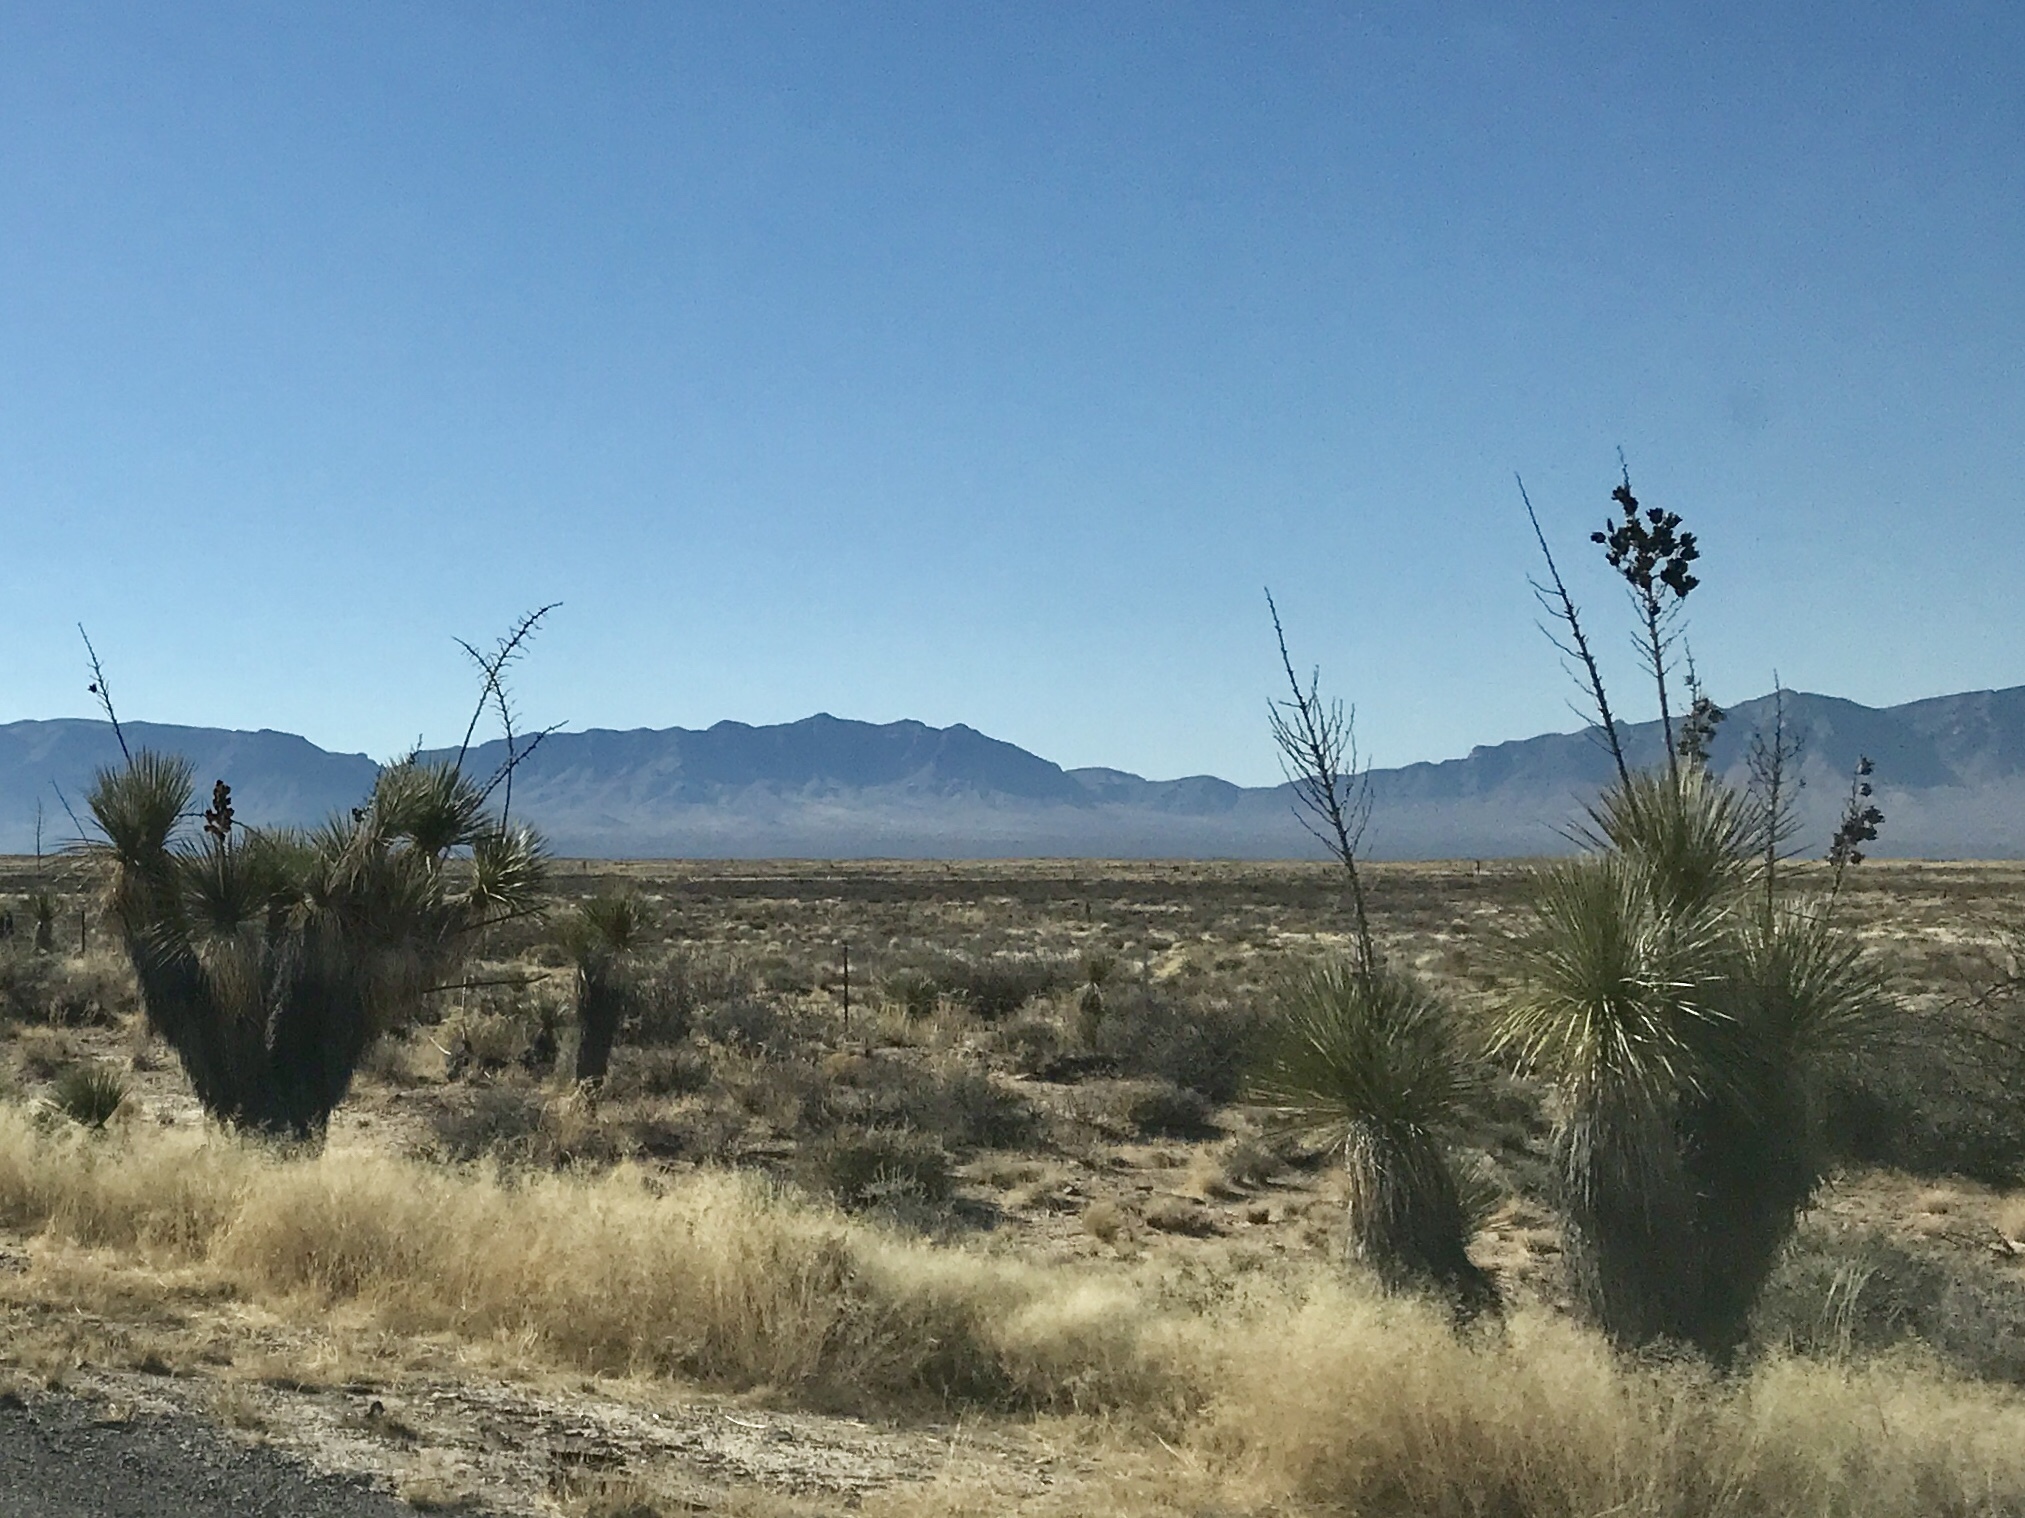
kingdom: Plantae
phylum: Tracheophyta
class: Liliopsida
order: Asparagales
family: Asparagaceae
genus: Yucca
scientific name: Yucca elata
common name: Palmella
